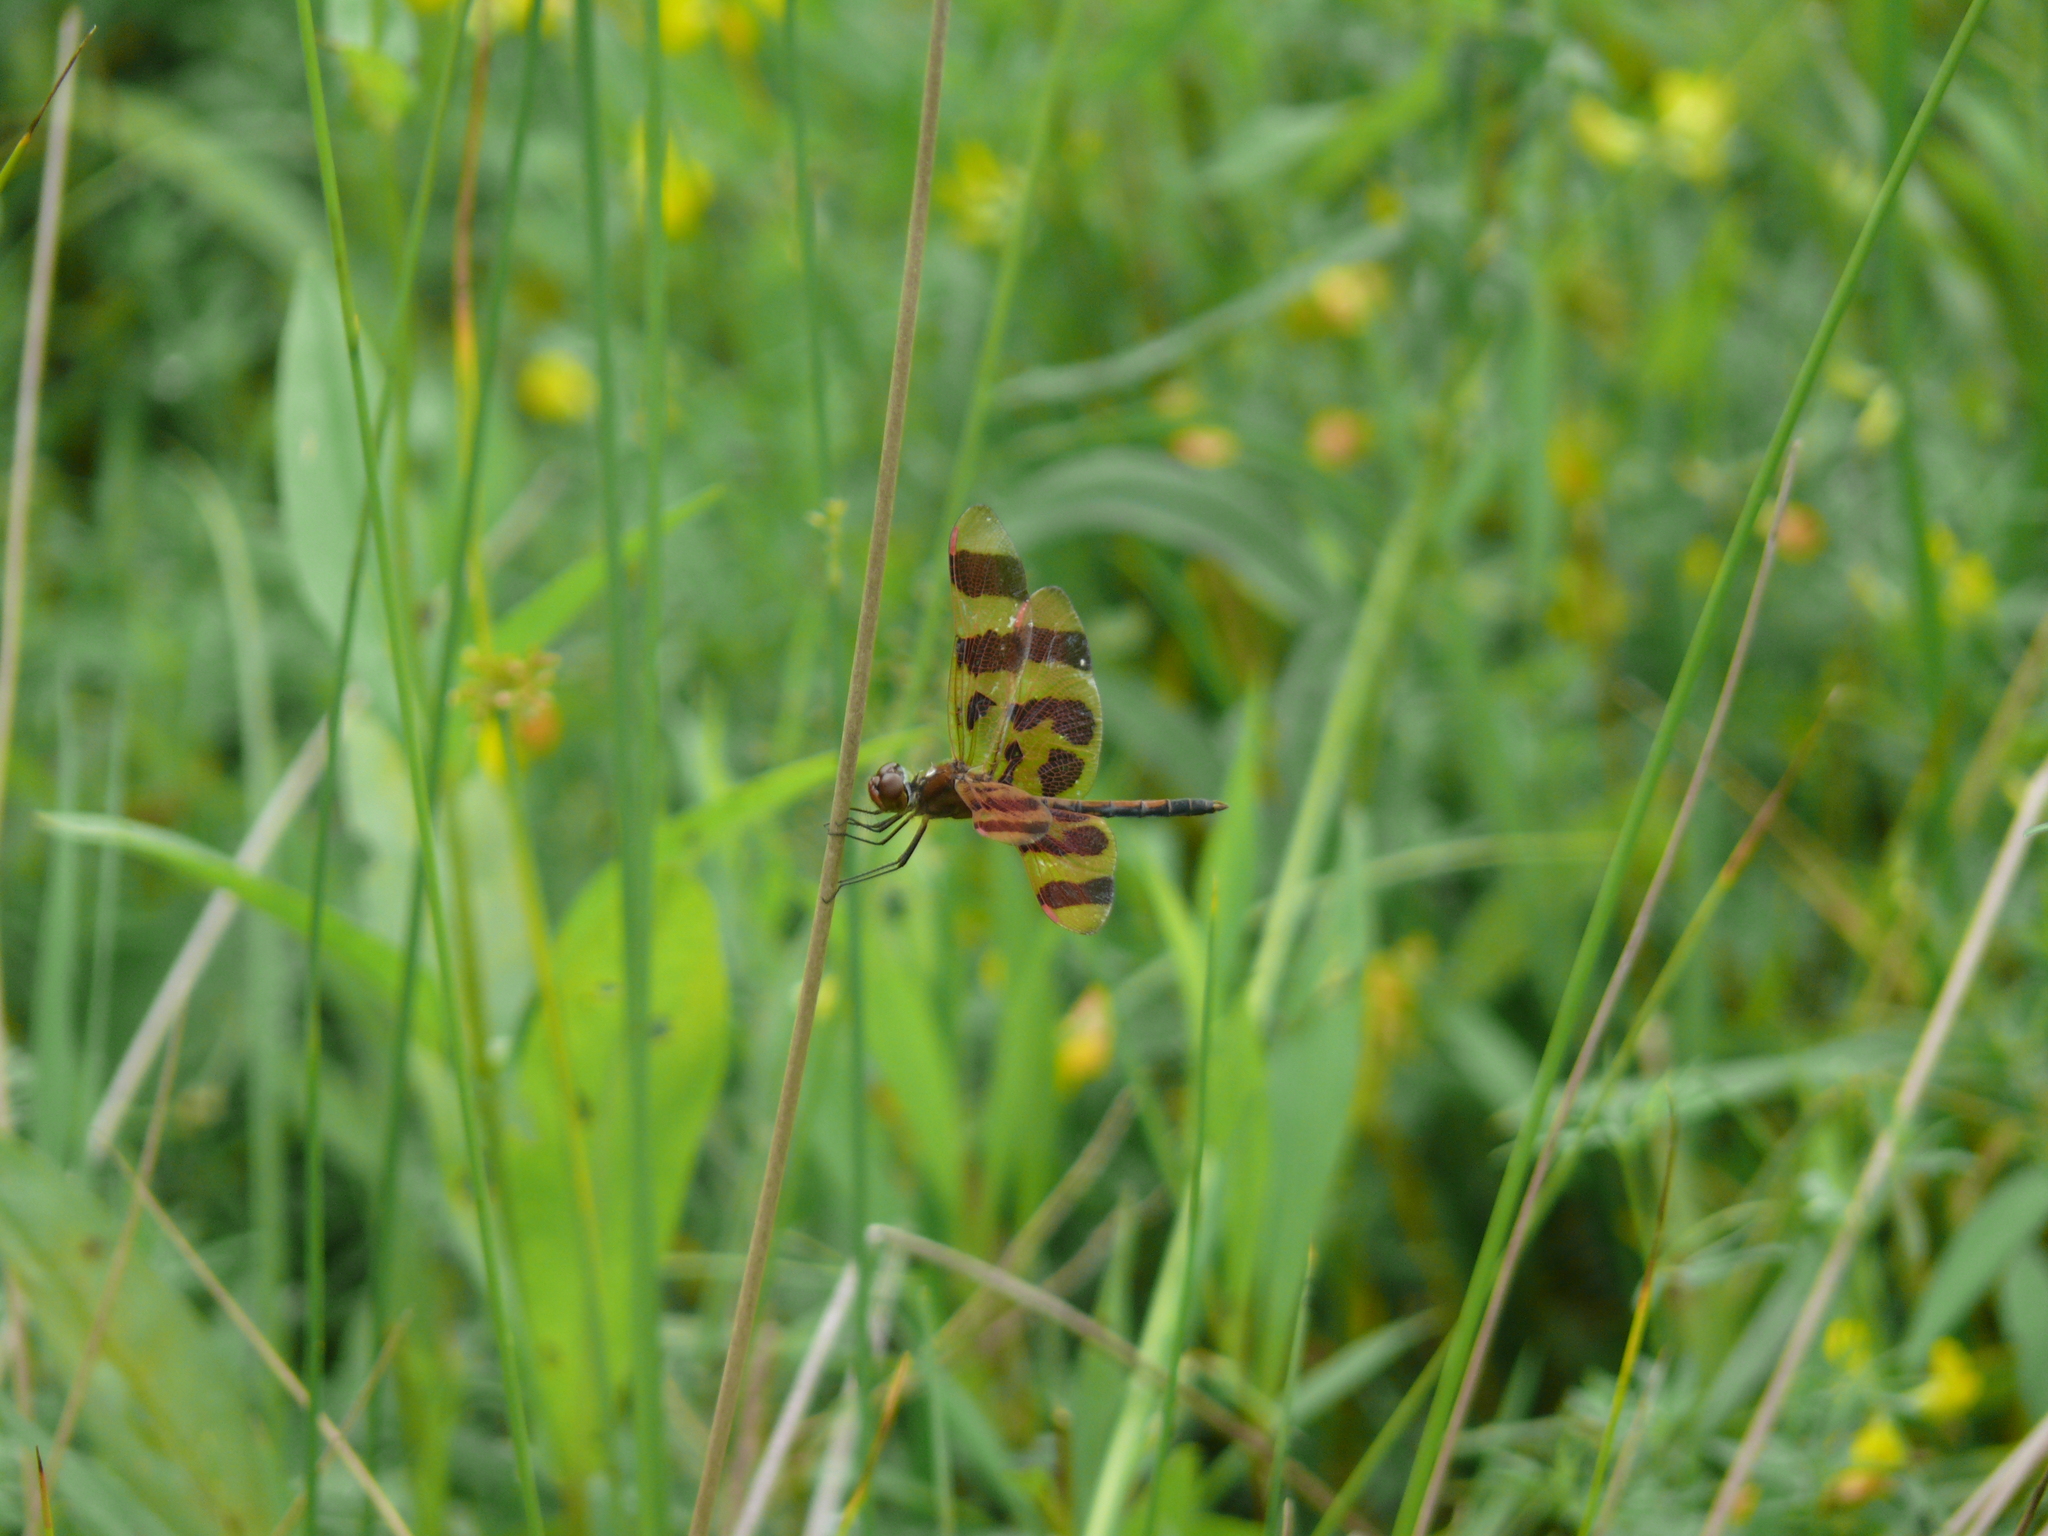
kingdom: Animalia
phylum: Arthropoda
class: Insecta
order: Odonata
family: Libellulidae
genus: Celithemis
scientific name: Celithemis eponina
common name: Halloween pennant
